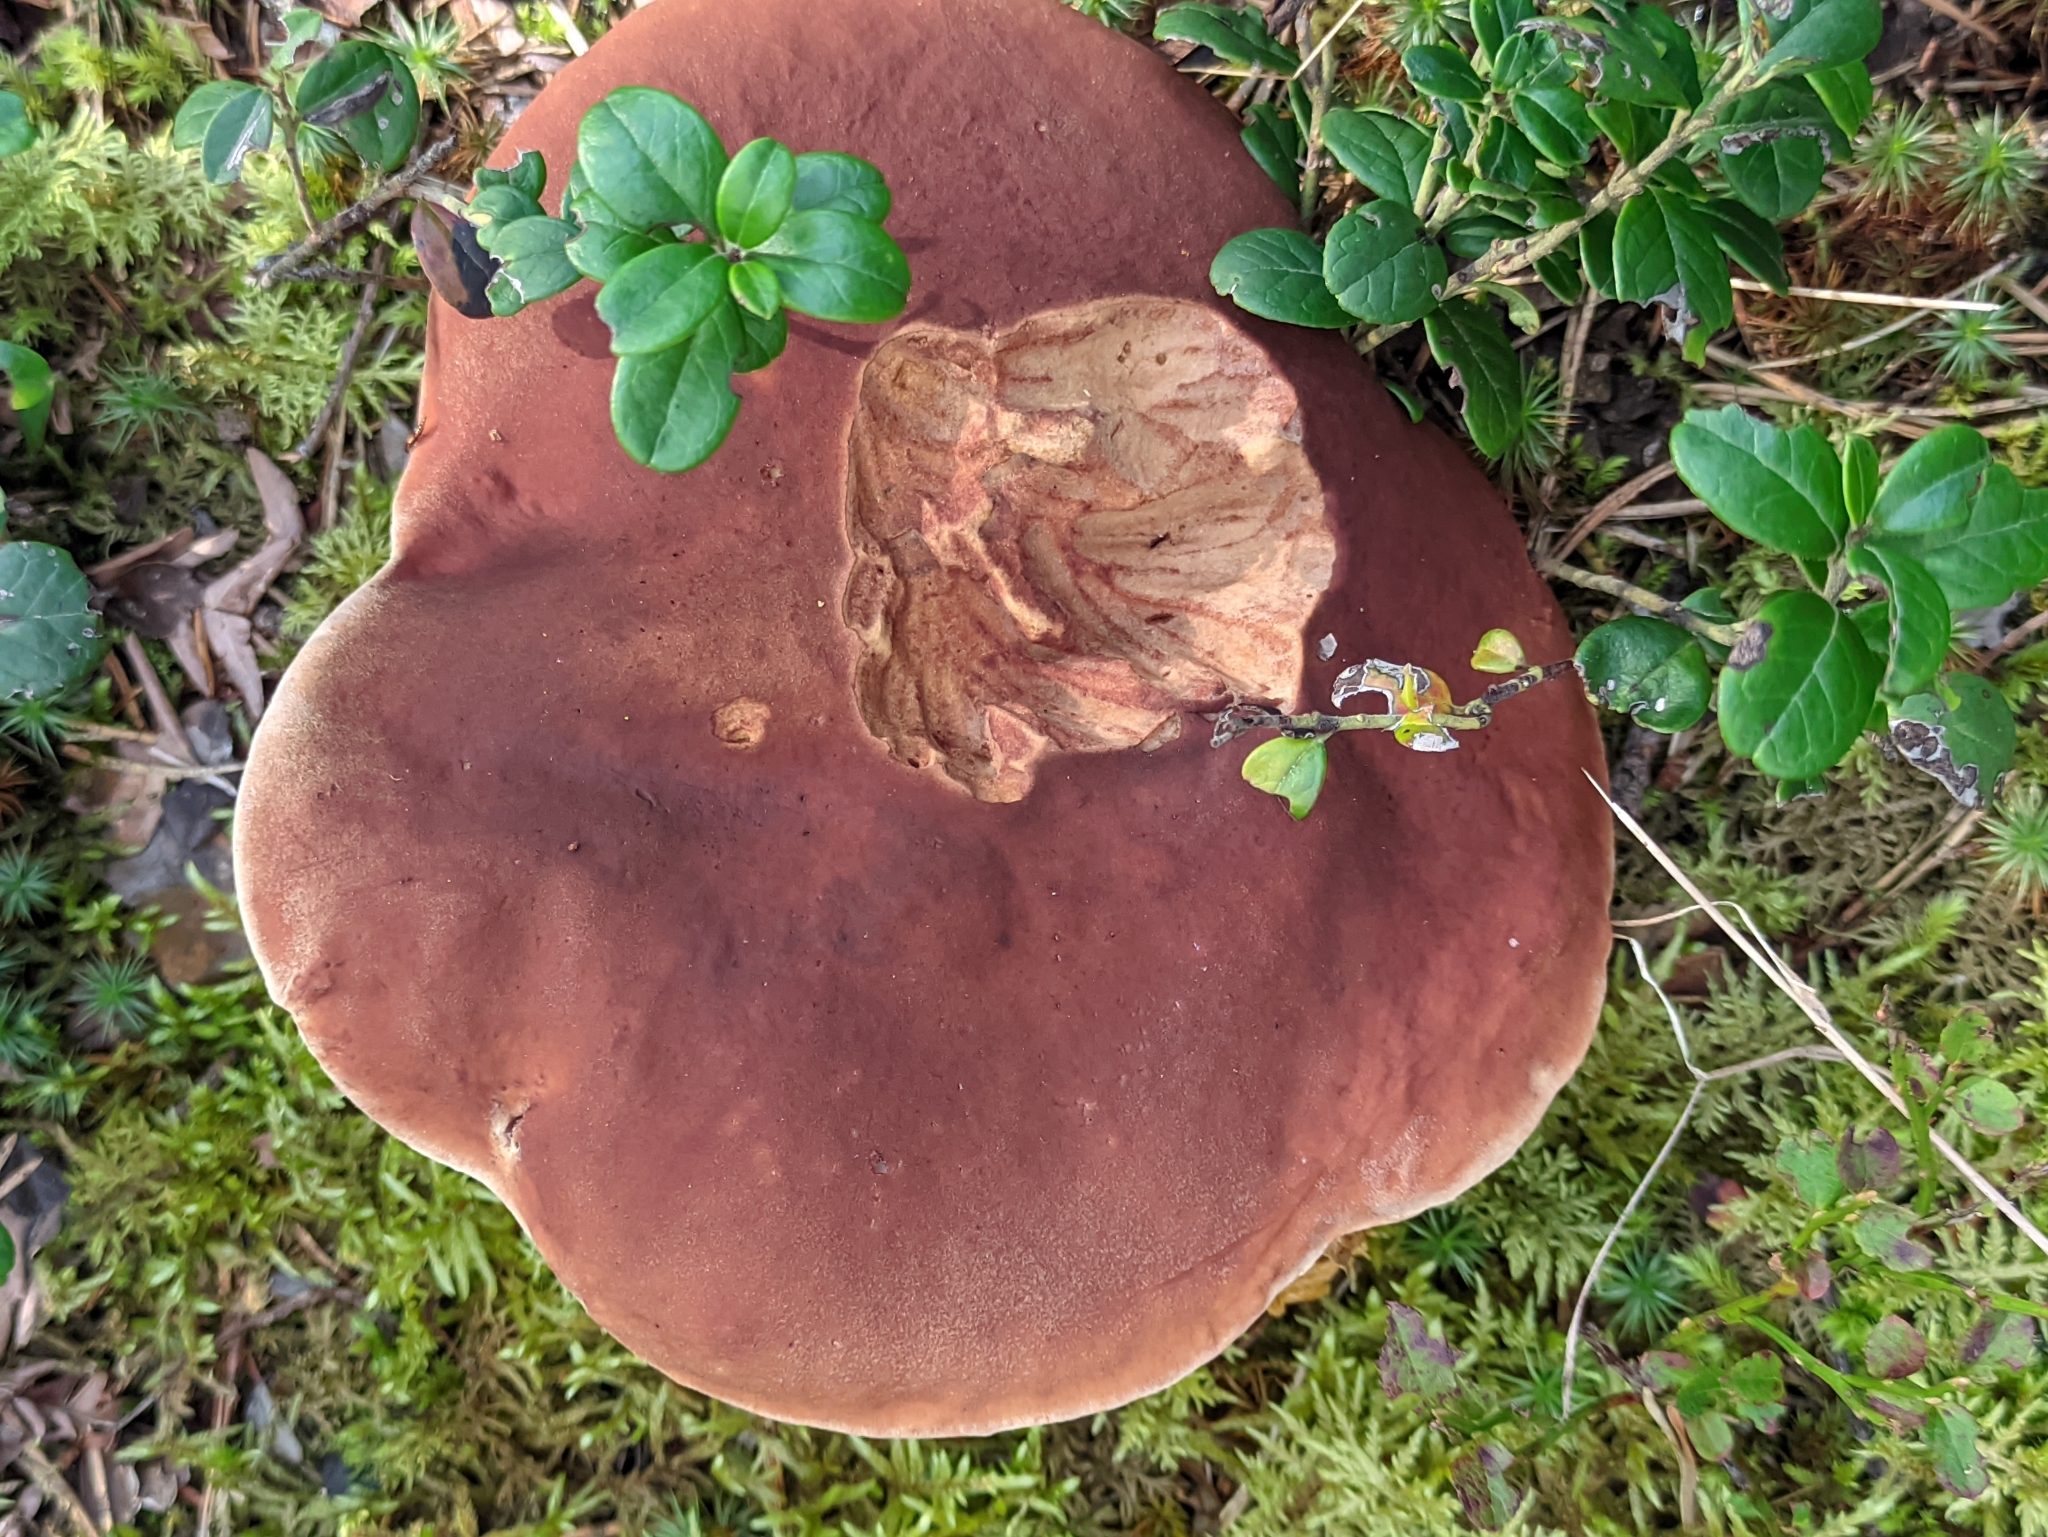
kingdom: Fungi
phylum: Basidiomycota
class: Agaricomycetes
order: Boletales
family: Boletaceae
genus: Boletus
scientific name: Boletus pinophilus
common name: Pine bolete
